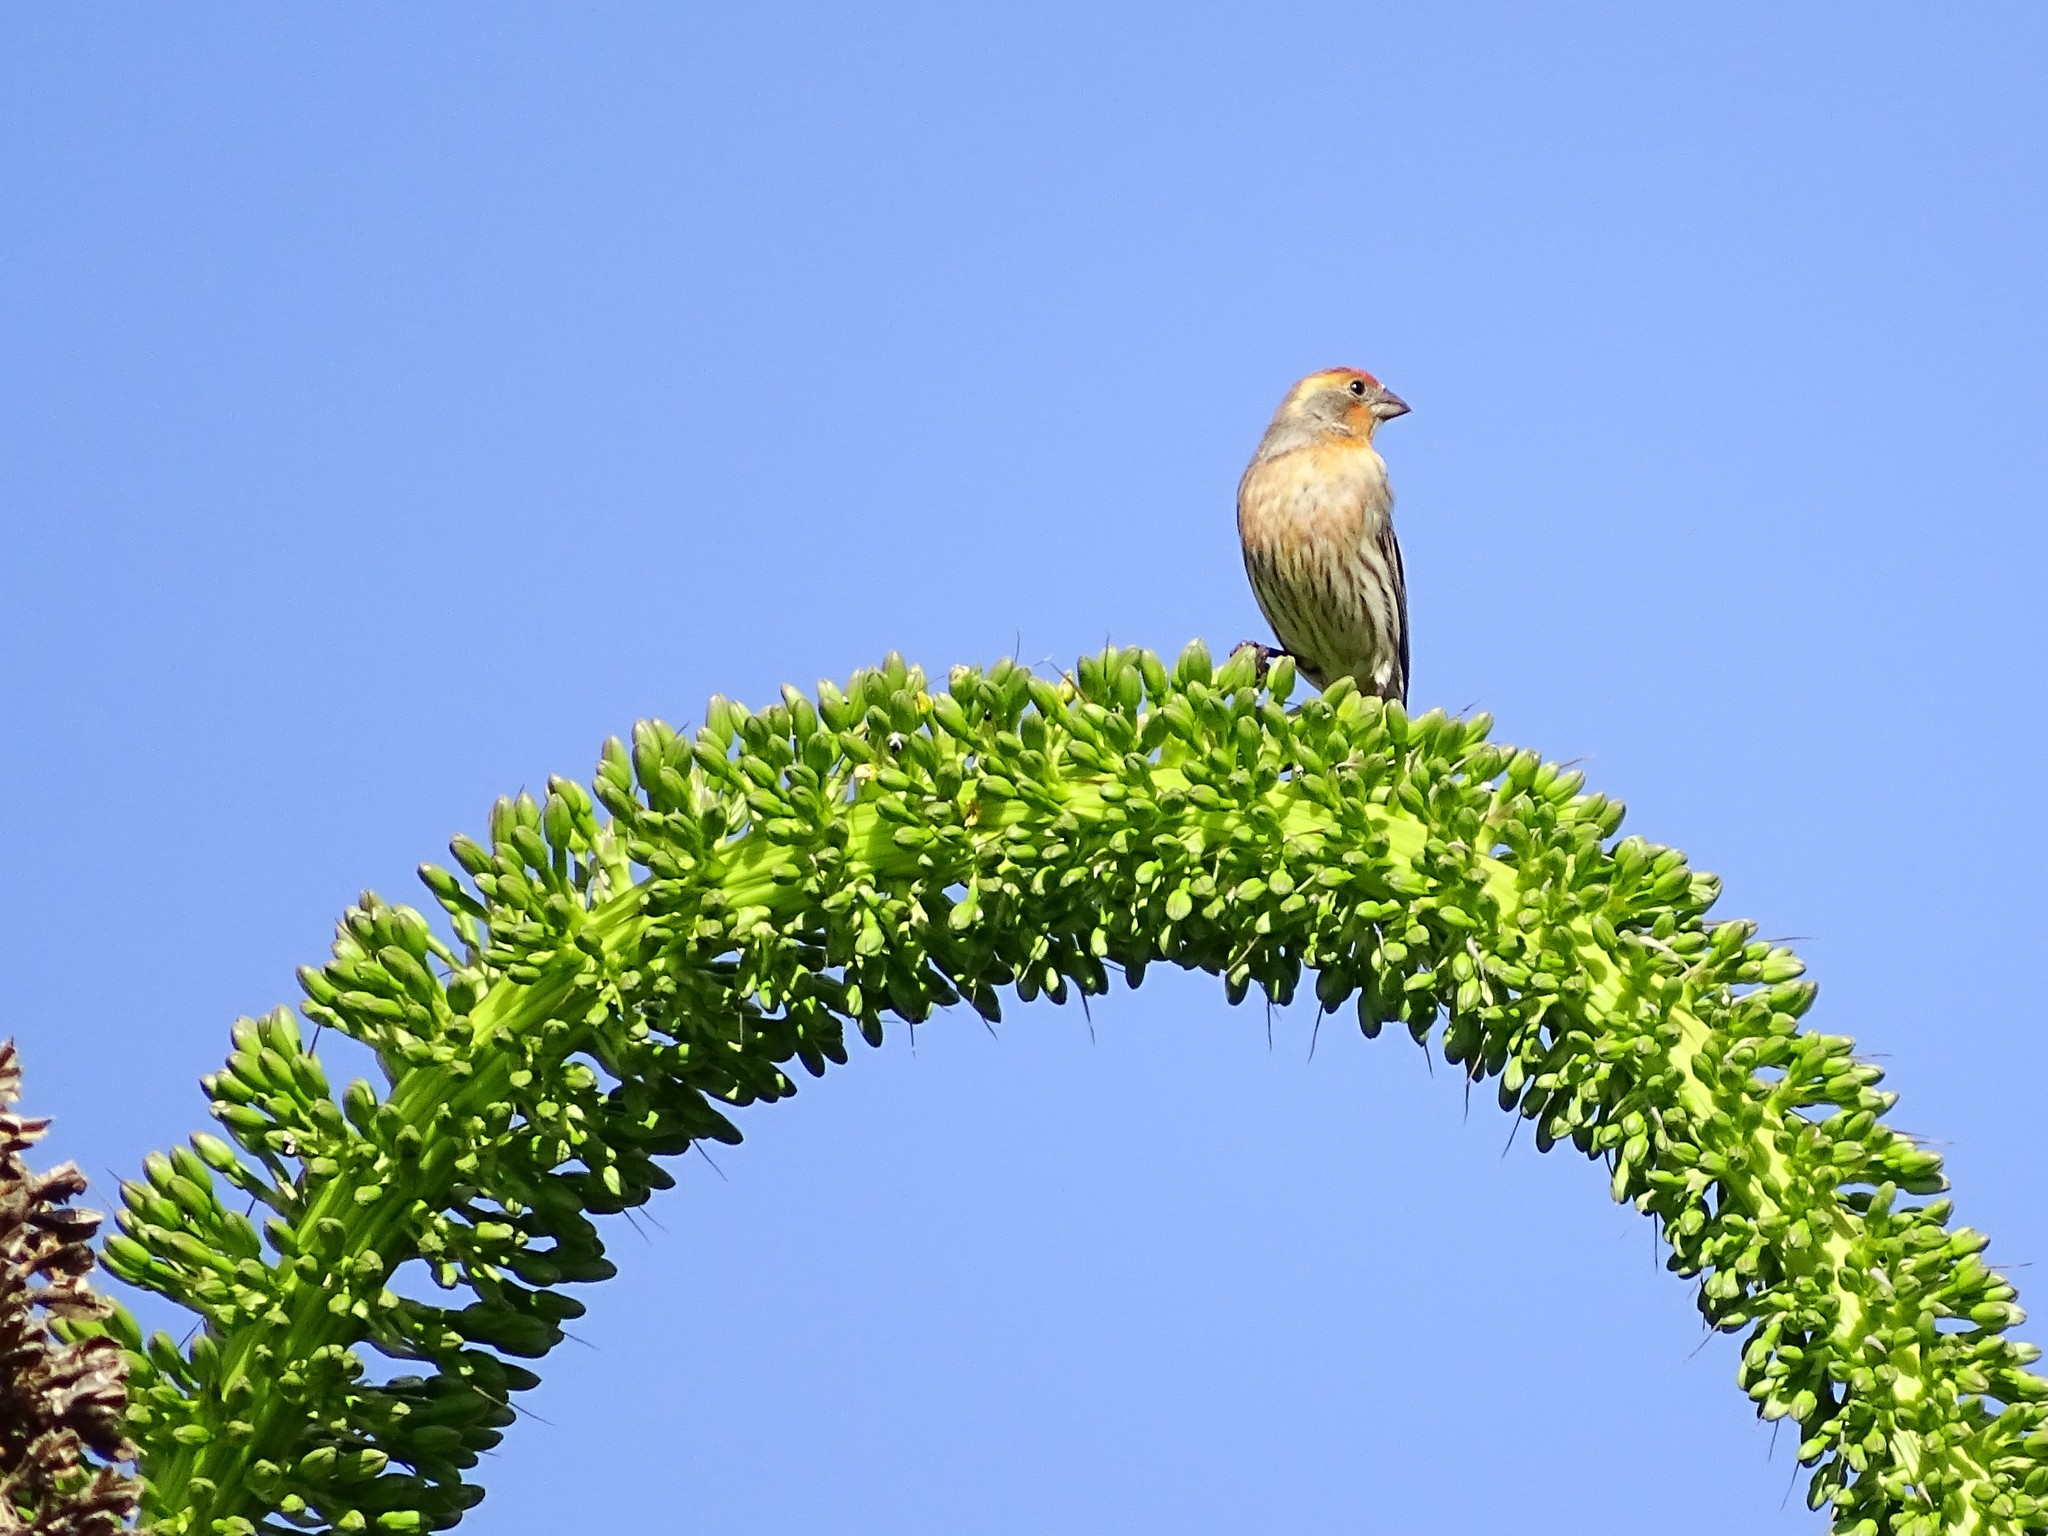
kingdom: Animalia
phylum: Chordata
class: Aves
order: Passeriformes
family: Fringillidae
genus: Haemorhous
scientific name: Haemorhous mexicanus
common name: House finch
